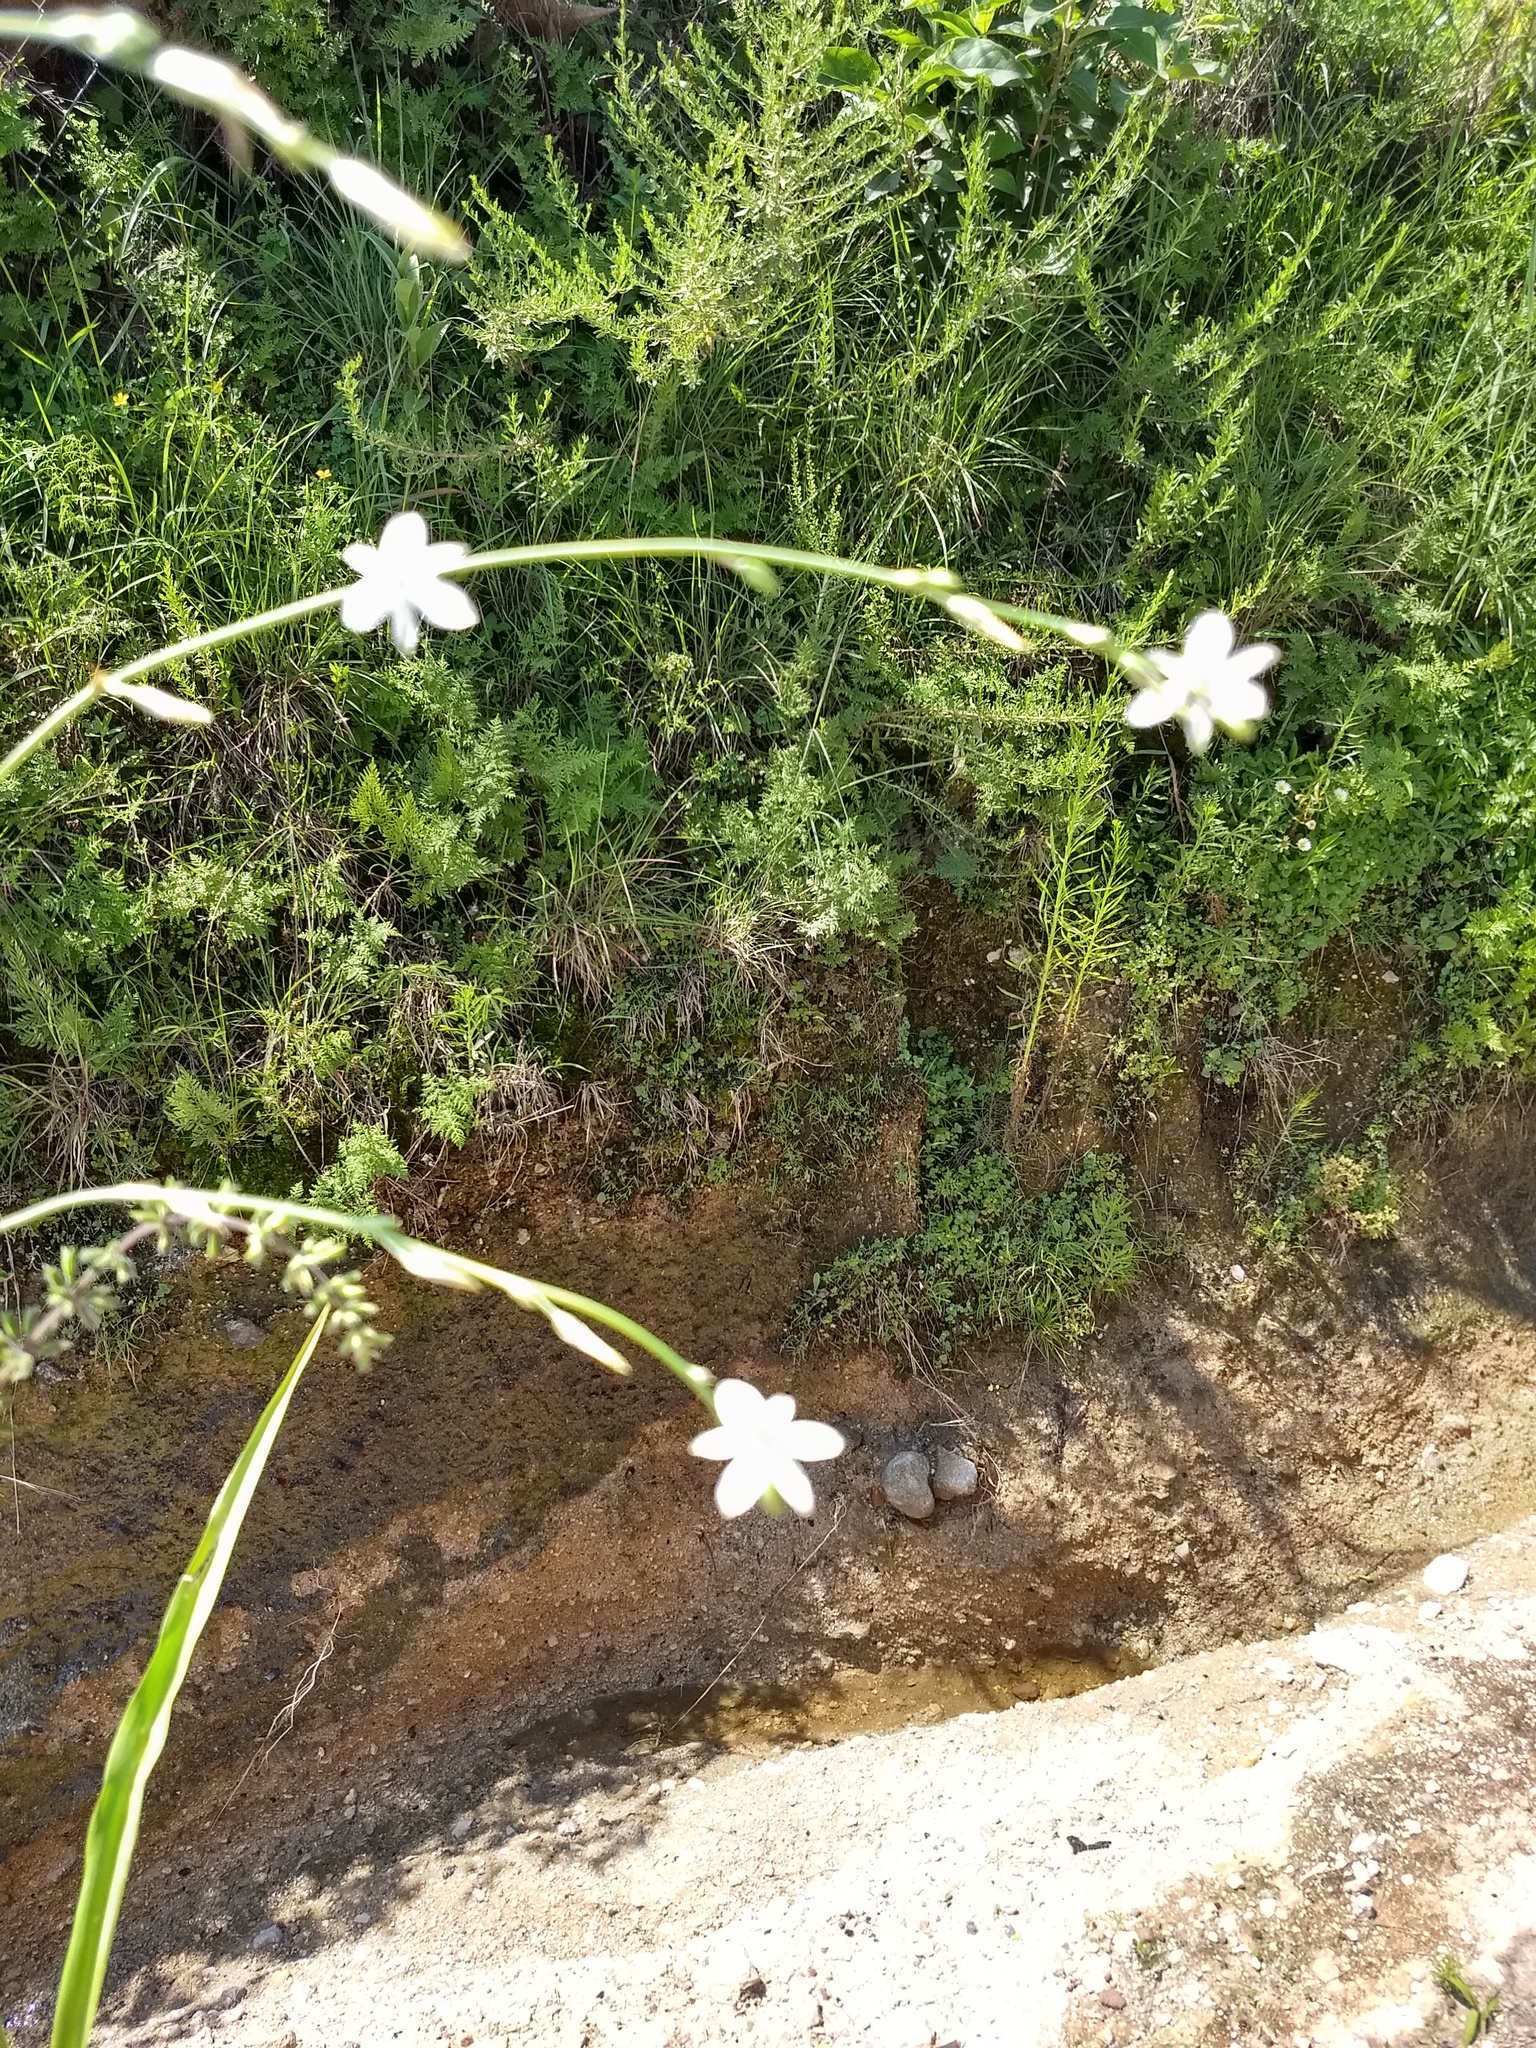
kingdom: Plantae
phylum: Tracheophyta
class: Liliopsida
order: Asparagales
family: Asparagaceae
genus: Echeandia
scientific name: Echeandia
